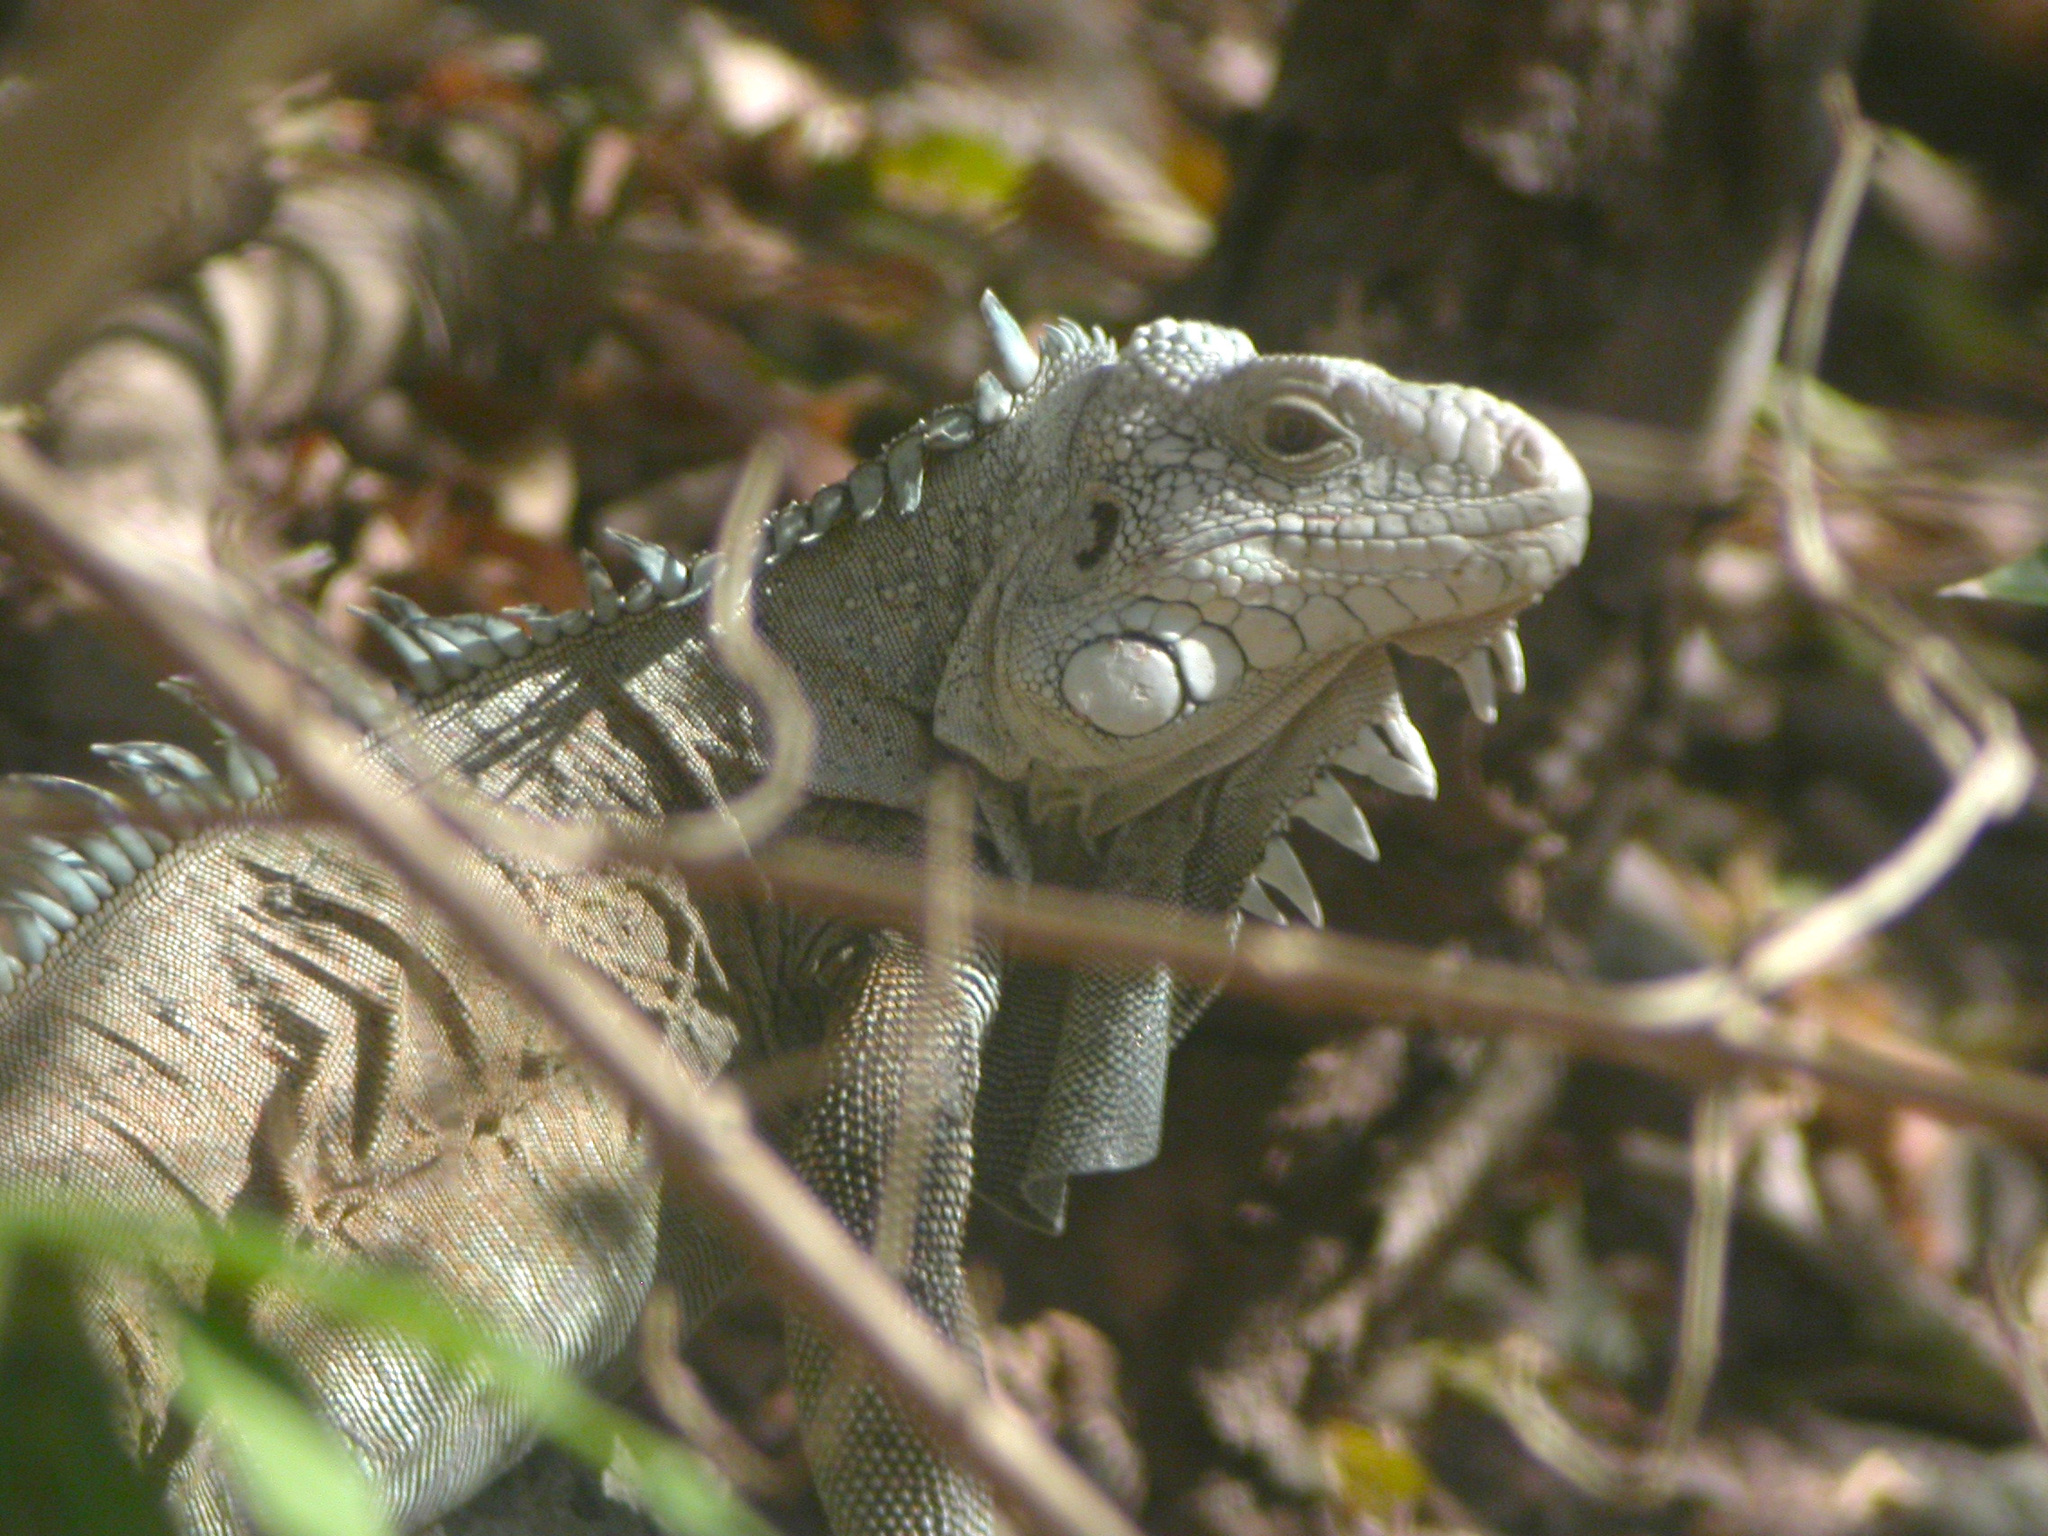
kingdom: Animalia
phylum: Chordata
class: Squamata
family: Iguanidae
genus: Iguana
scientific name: Iguana iguana
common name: Green iguana
